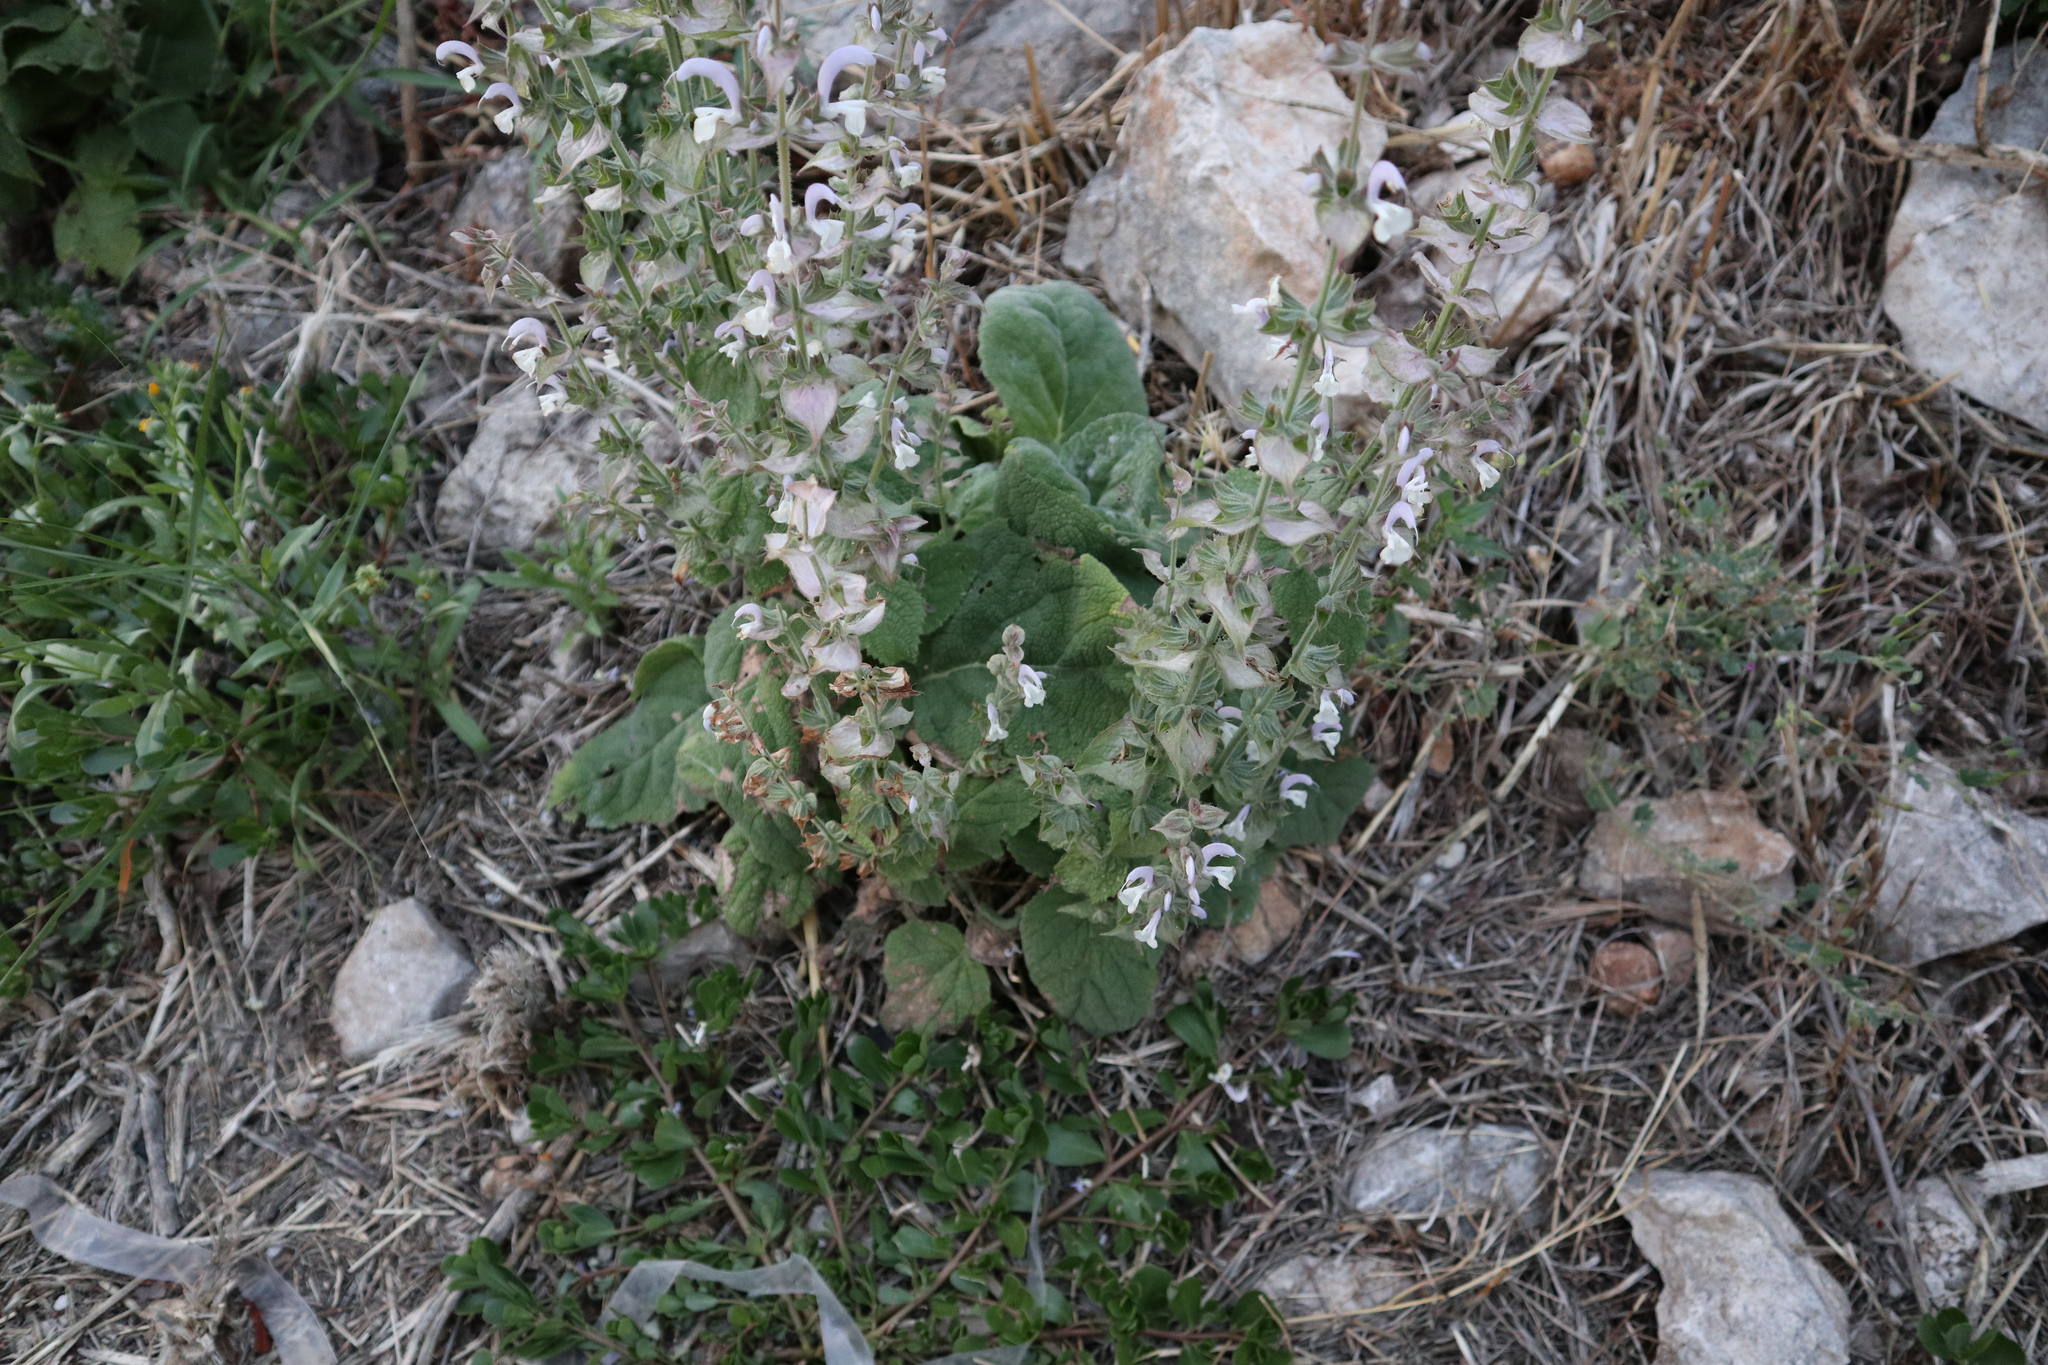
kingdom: Plantae
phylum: Tracheophyta
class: Magnoliopsida
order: Lamiales
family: Lamiaceae
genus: Salvia
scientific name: Salvia sclarea
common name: Clary
